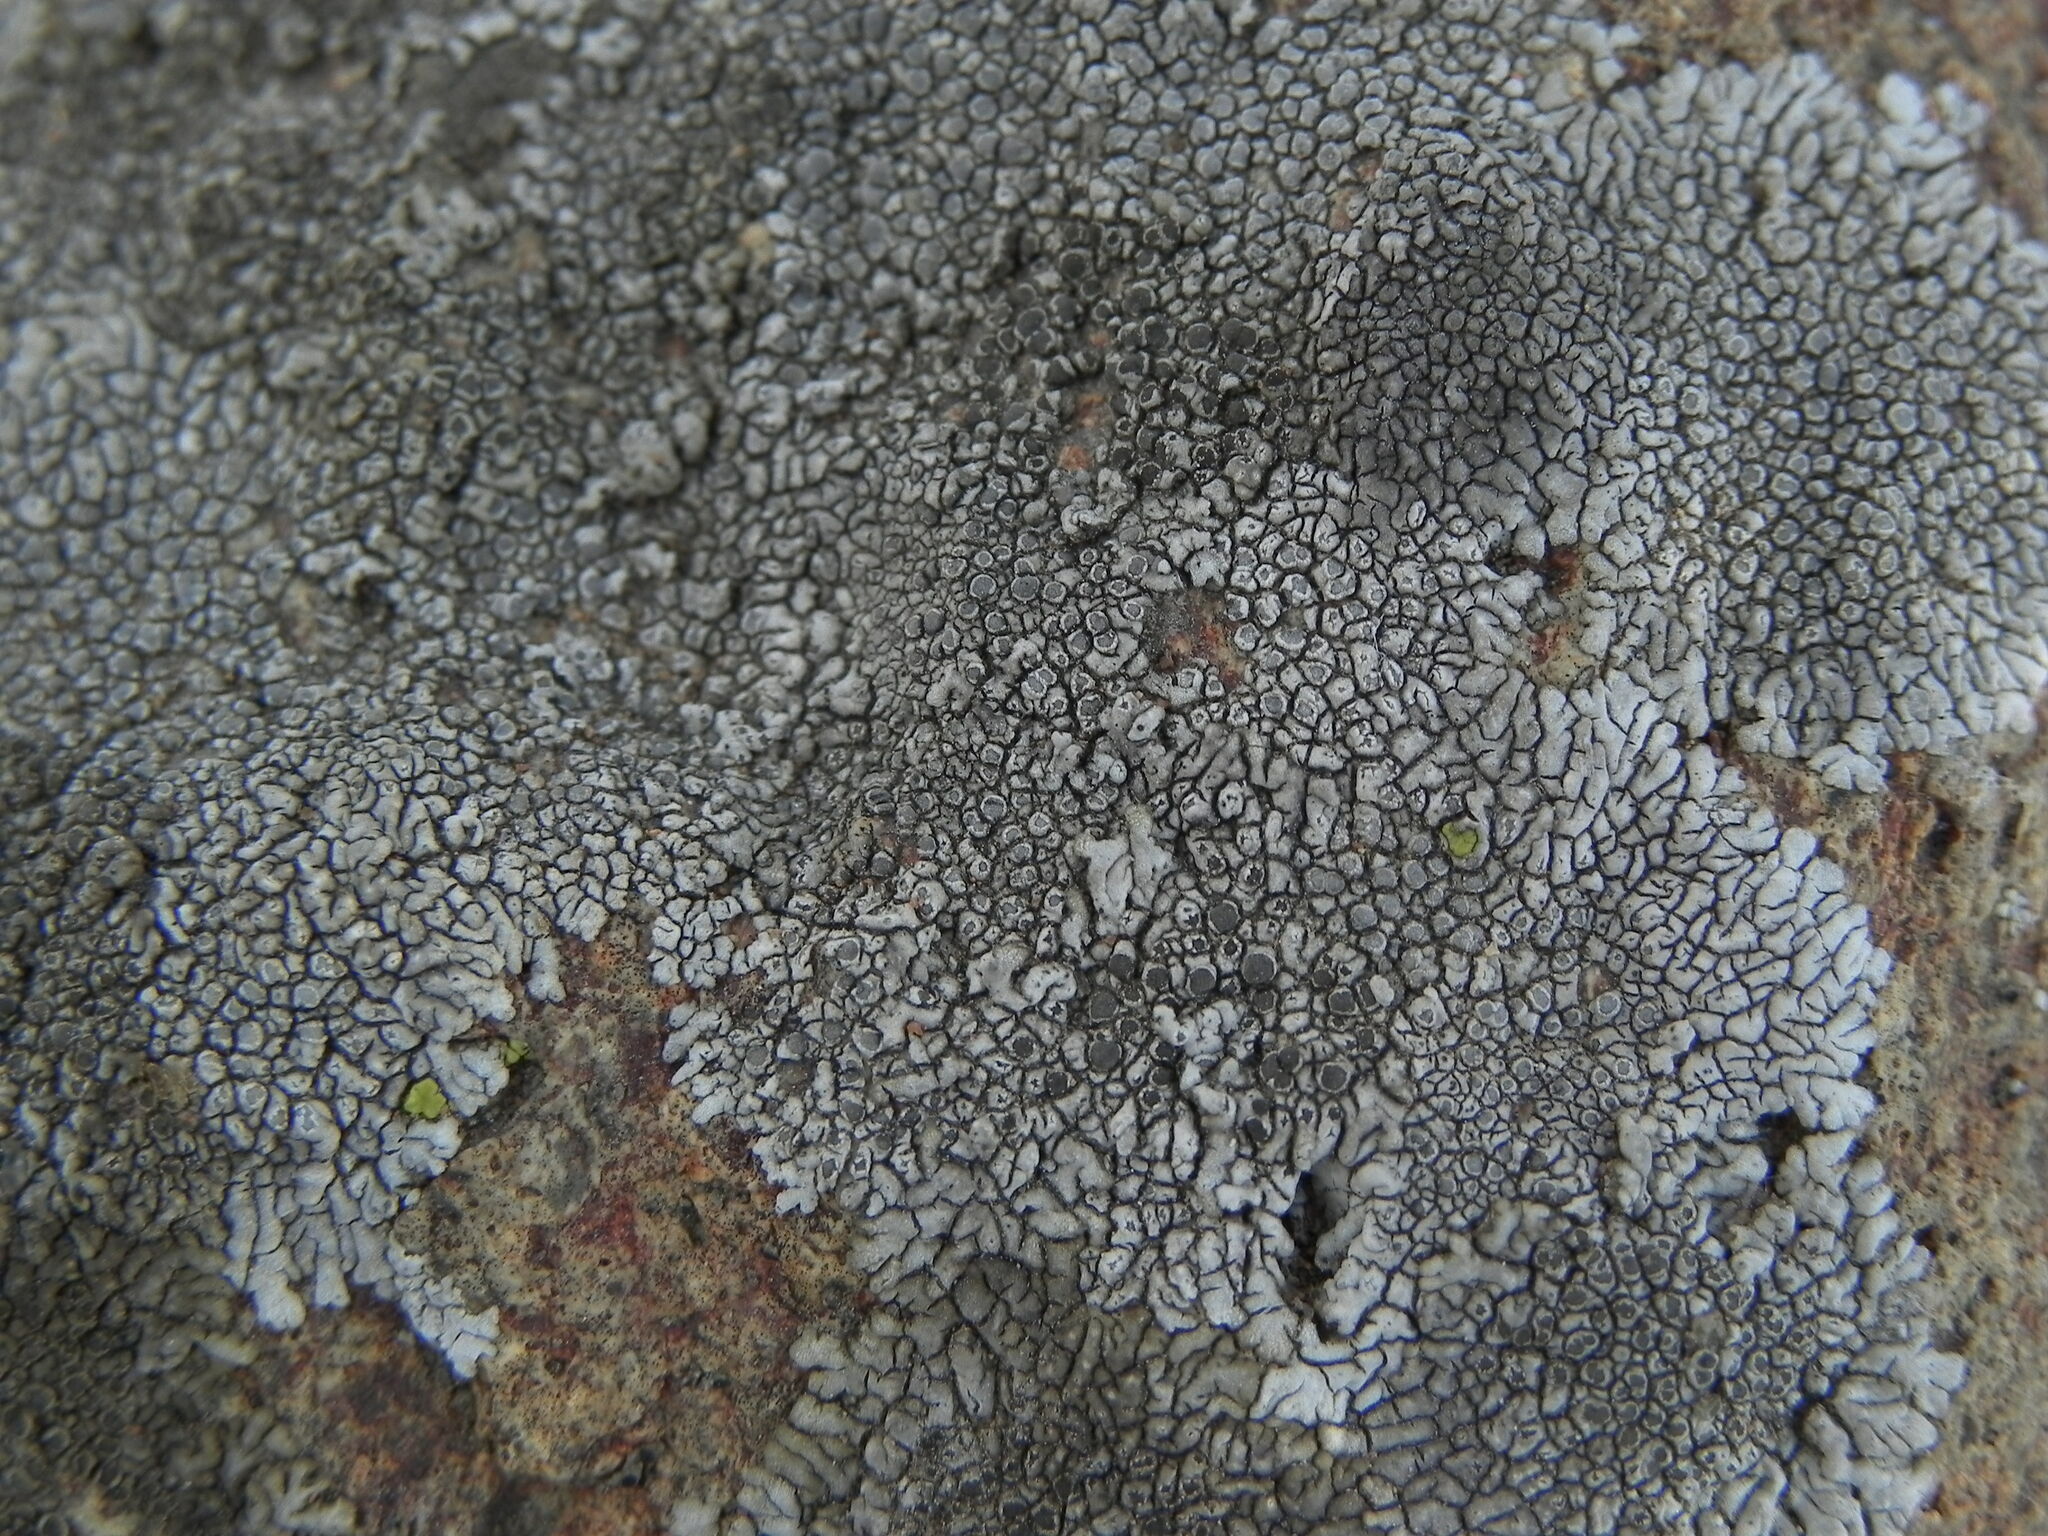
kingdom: Fungi
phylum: Ascomycota
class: Lecanoromycetes
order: Caliciales
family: Caliciaceae
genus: Dimelaena
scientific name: Dimelaena radiata
